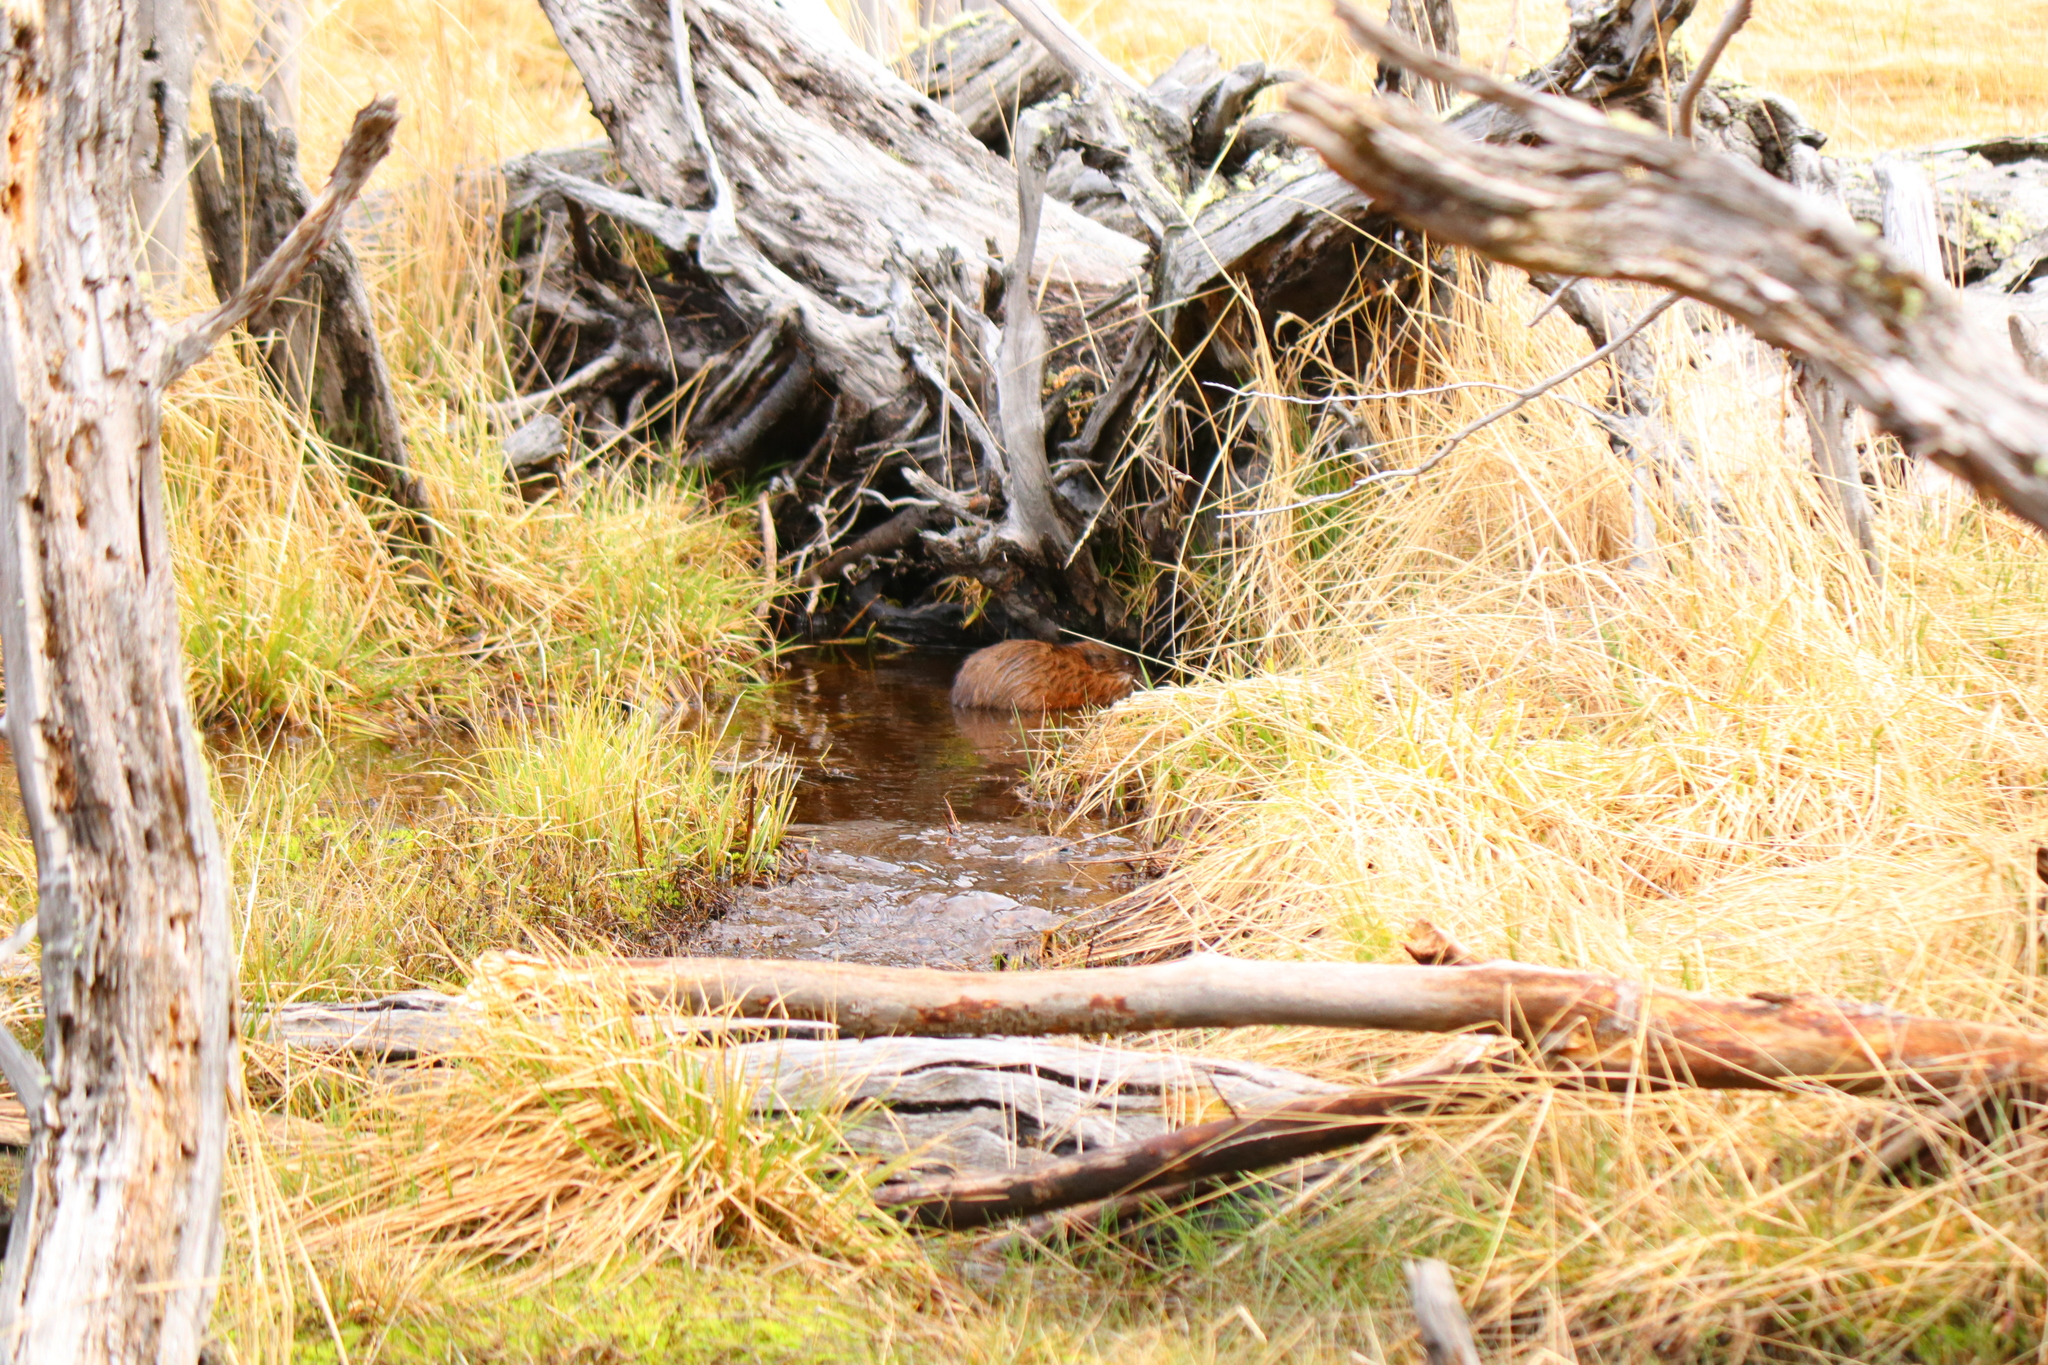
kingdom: Animalia
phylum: Chordata
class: Mammalia
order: Rodentia
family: Cricetidae
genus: Ondatra
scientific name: Ondatra zibethicus
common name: Muskrat
